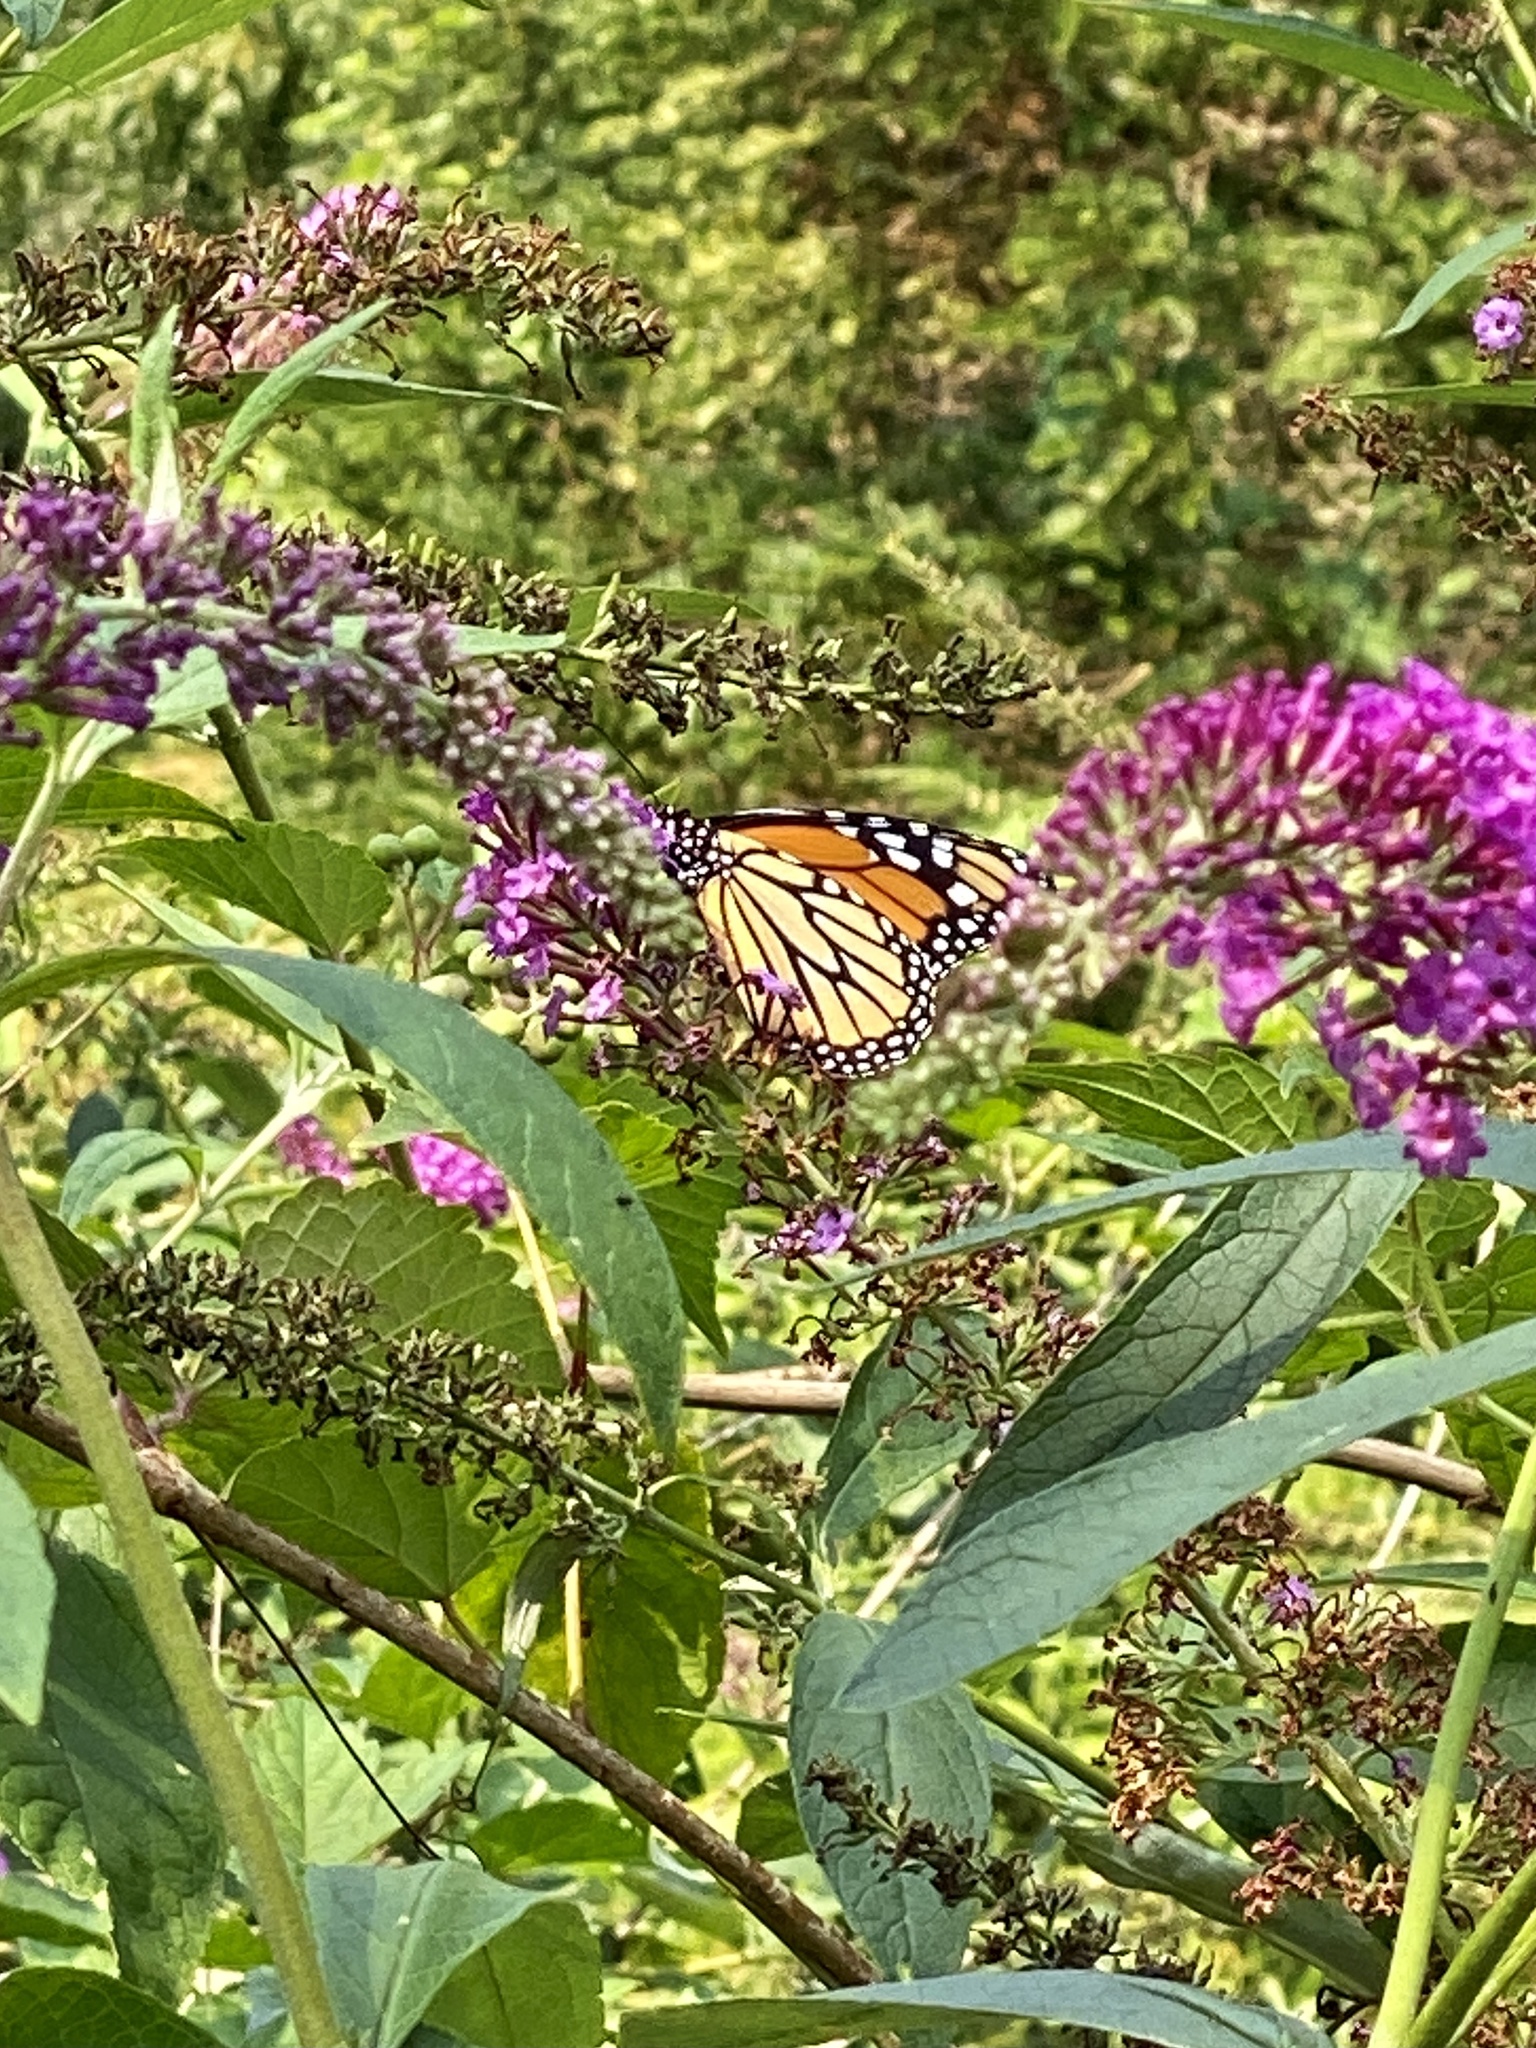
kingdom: Animalia
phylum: Arthropoda
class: Insecta
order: Lepidoptera
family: Nymphalidae
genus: Danaus
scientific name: Danaus plexippus
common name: Monarch
